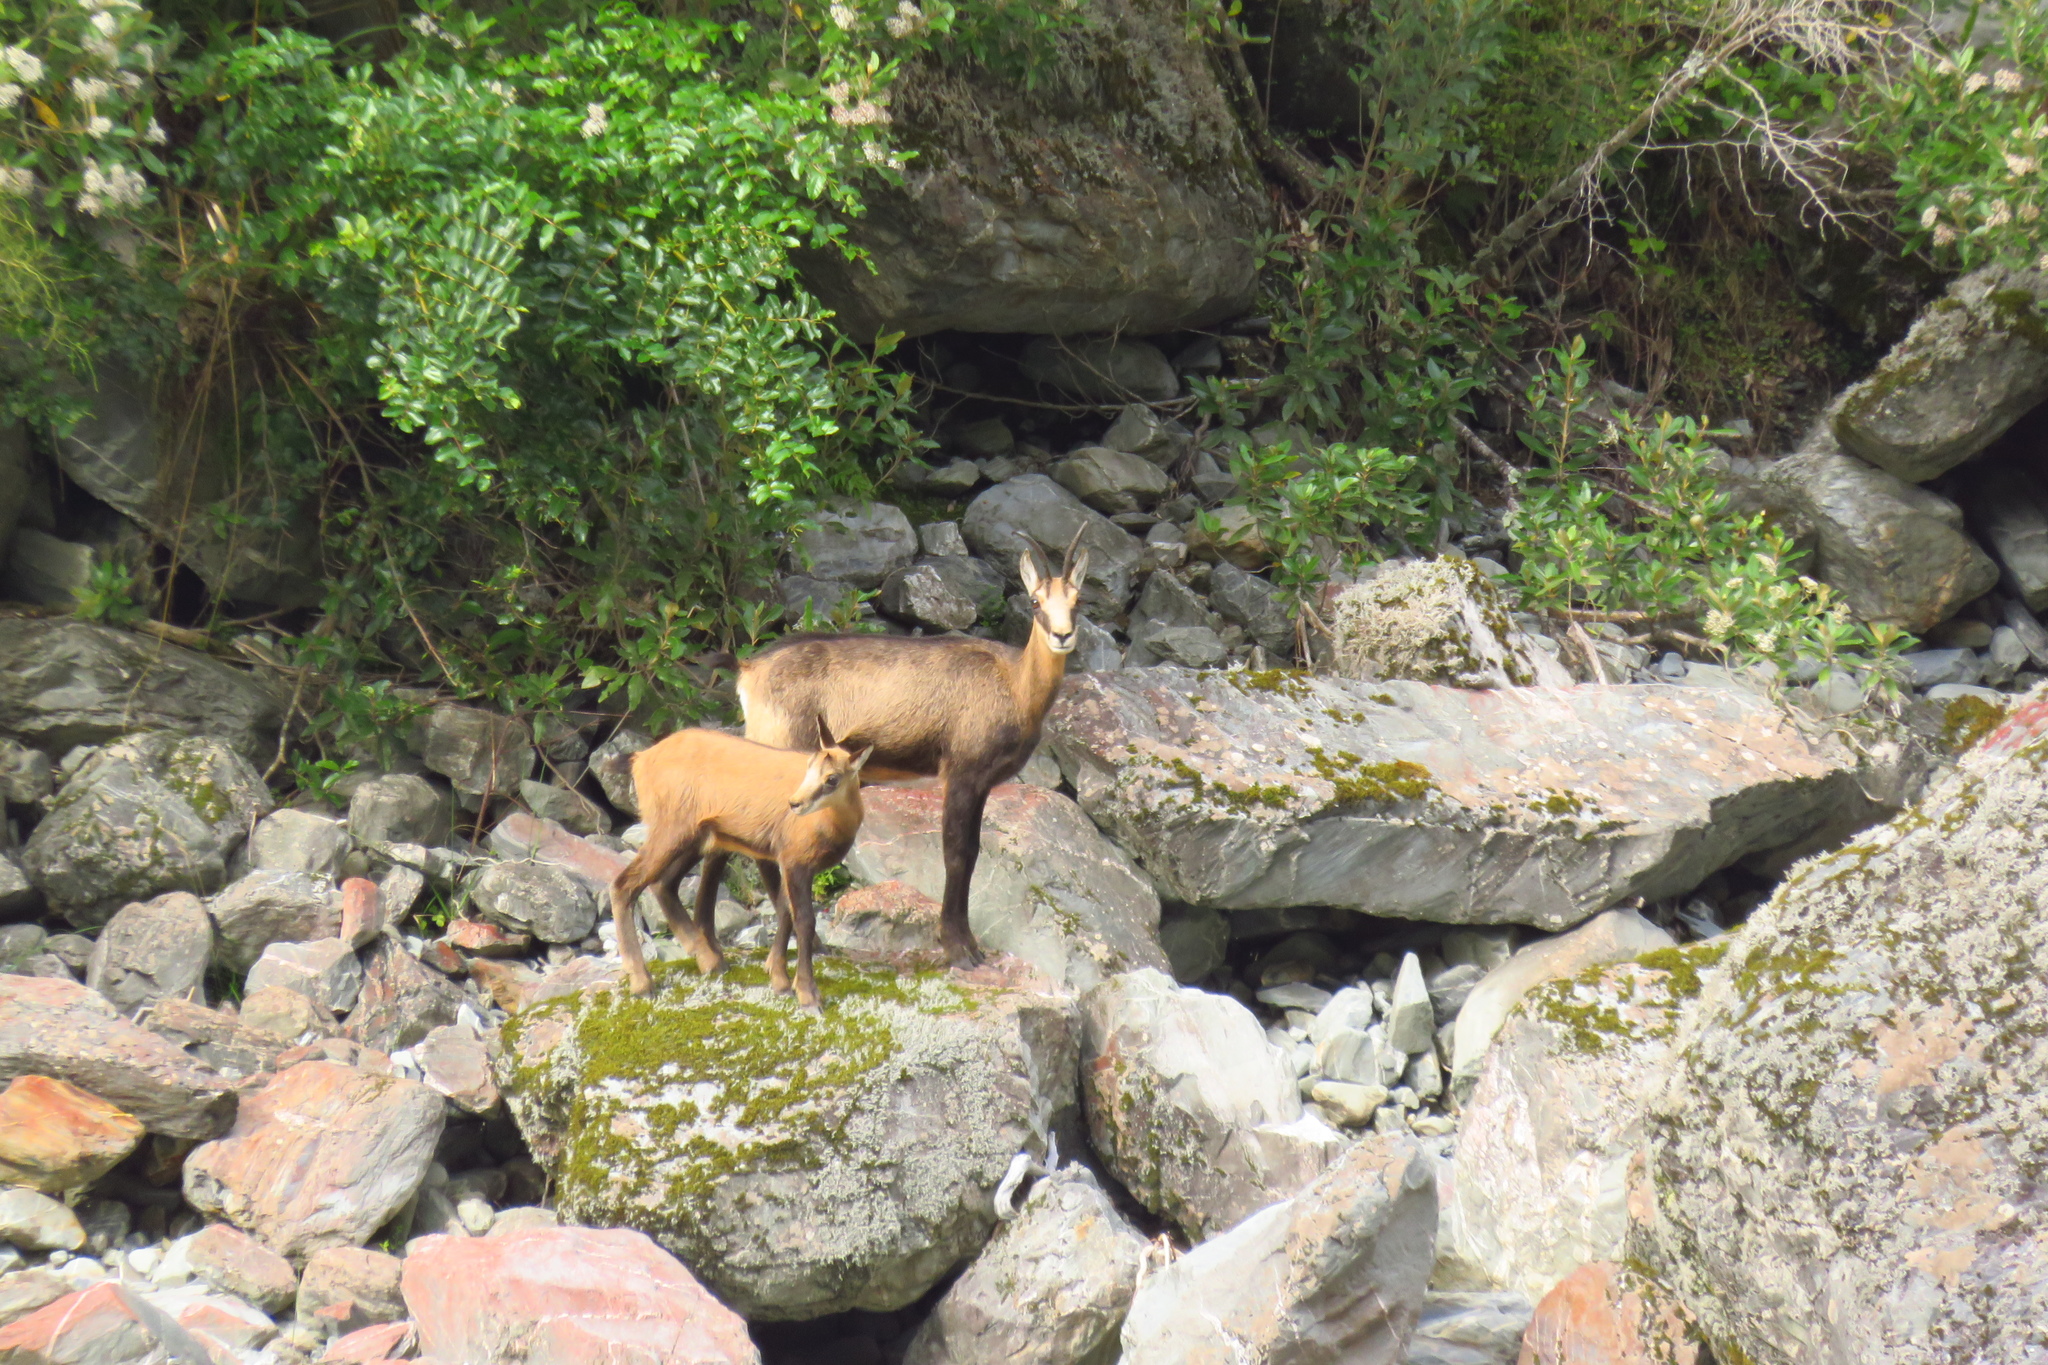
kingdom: Animalia
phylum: Chordata
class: Mammalia
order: Artiodactyla
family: Bovidae
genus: Rupicapra
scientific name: Rupicapra rupicapra
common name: Chamois
